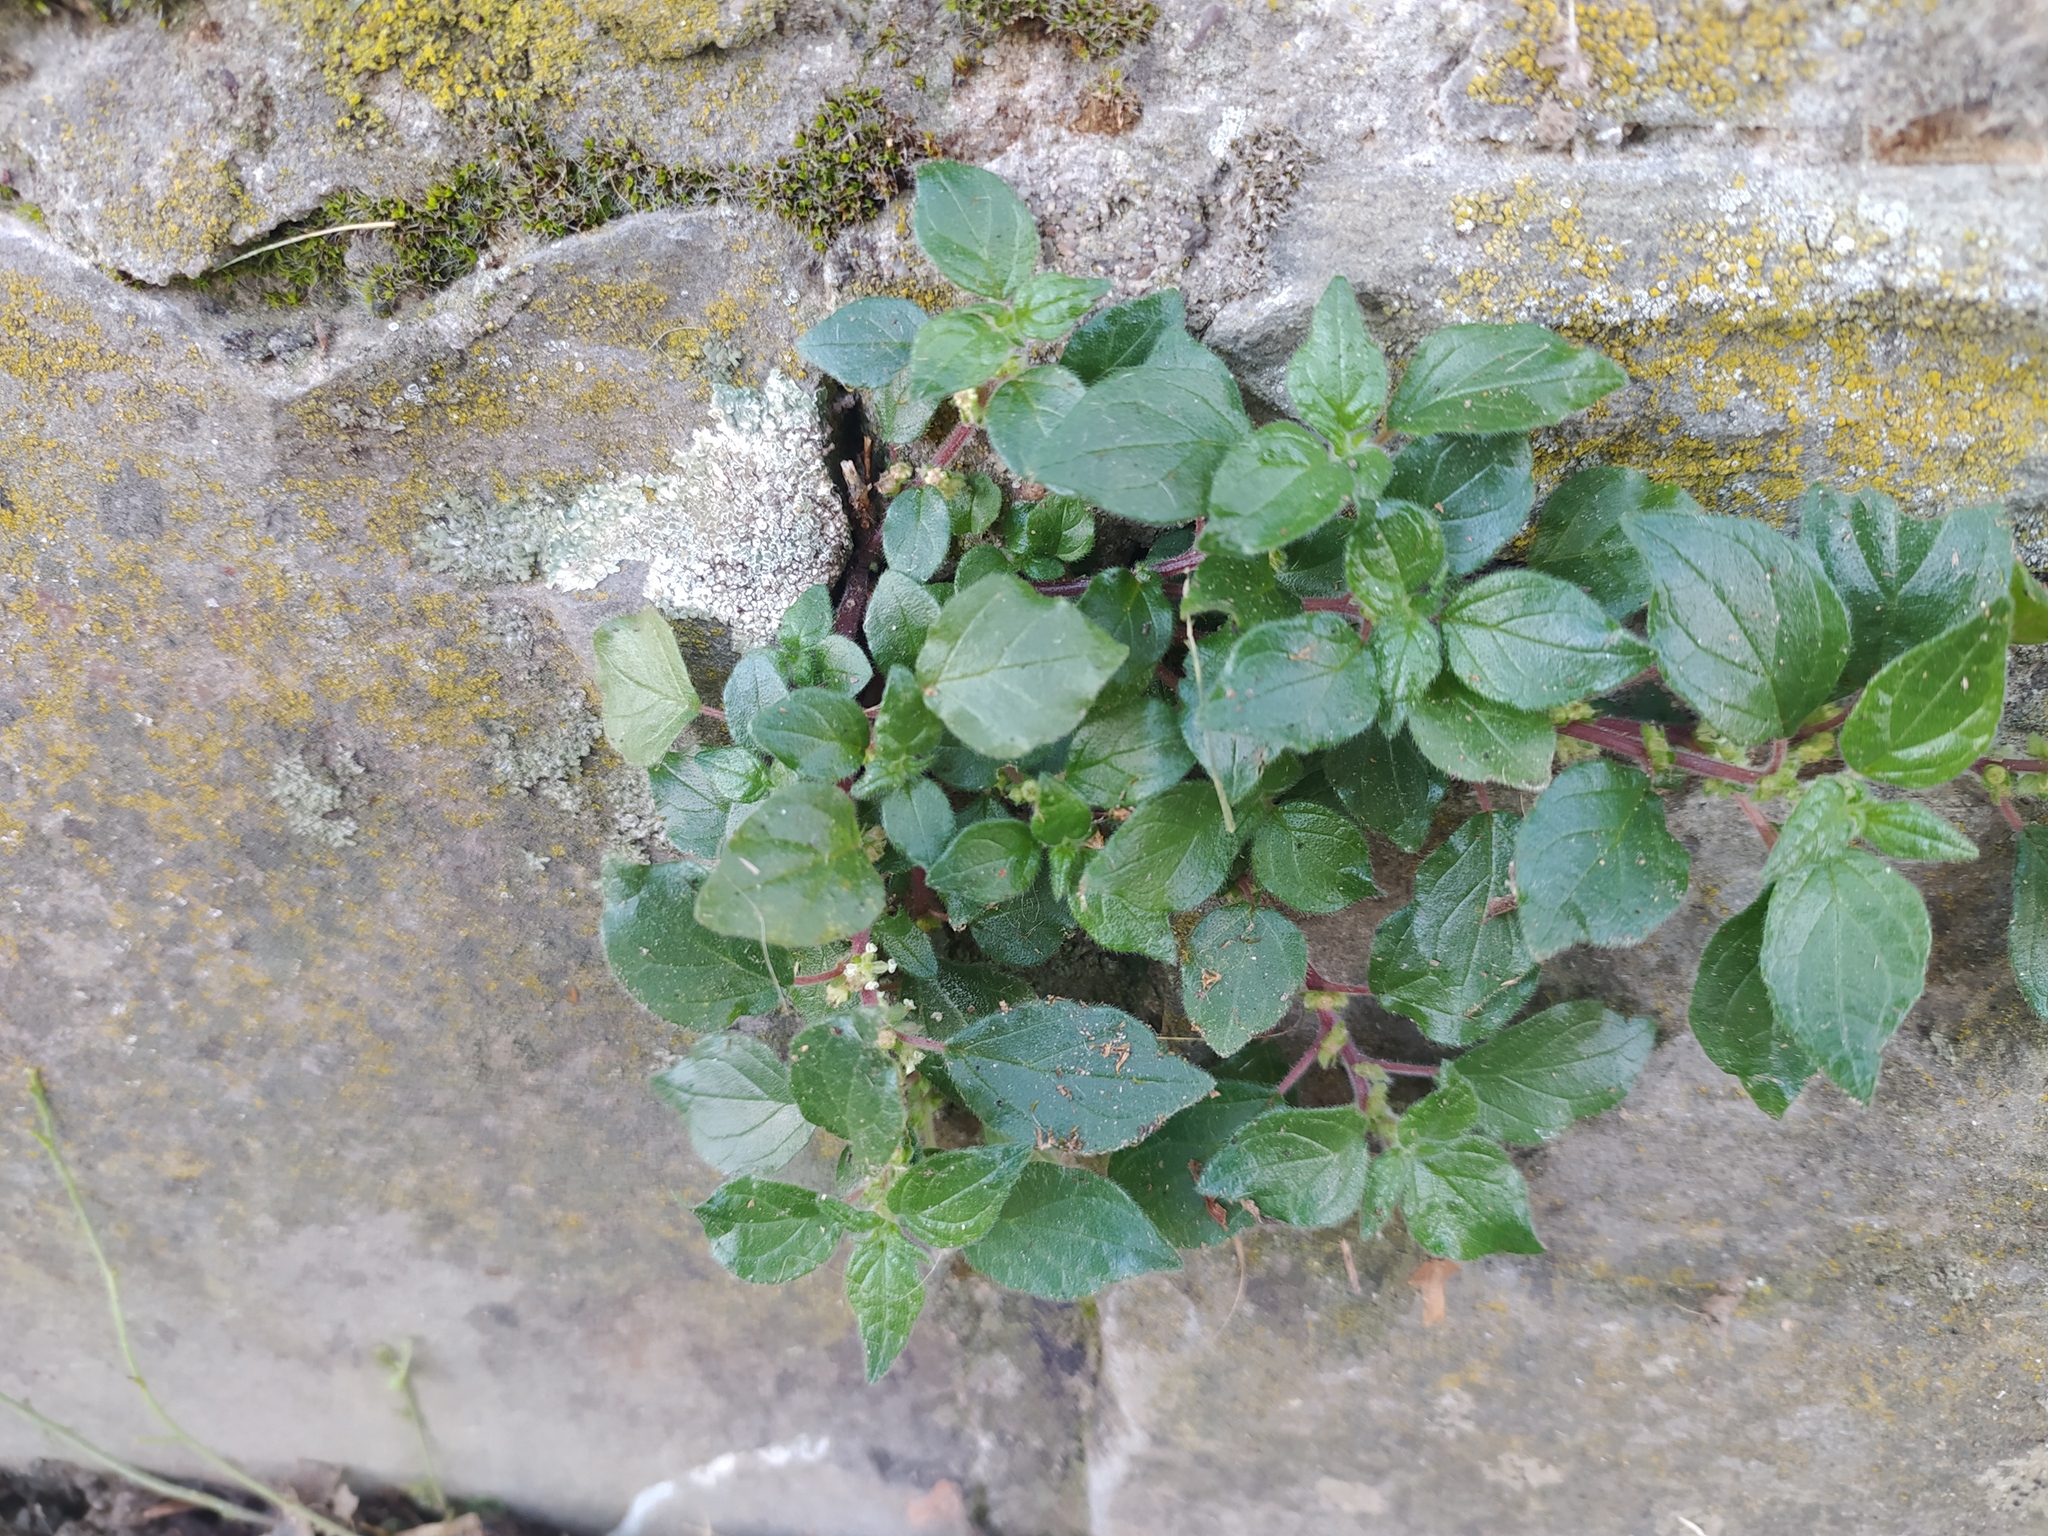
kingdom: Plantae
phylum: Tracheophyta
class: Magnoliopsida
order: Rosales
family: Urticaceae
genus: Parietaria
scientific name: Parietaria judaica
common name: Pellitory-of-the-wall
